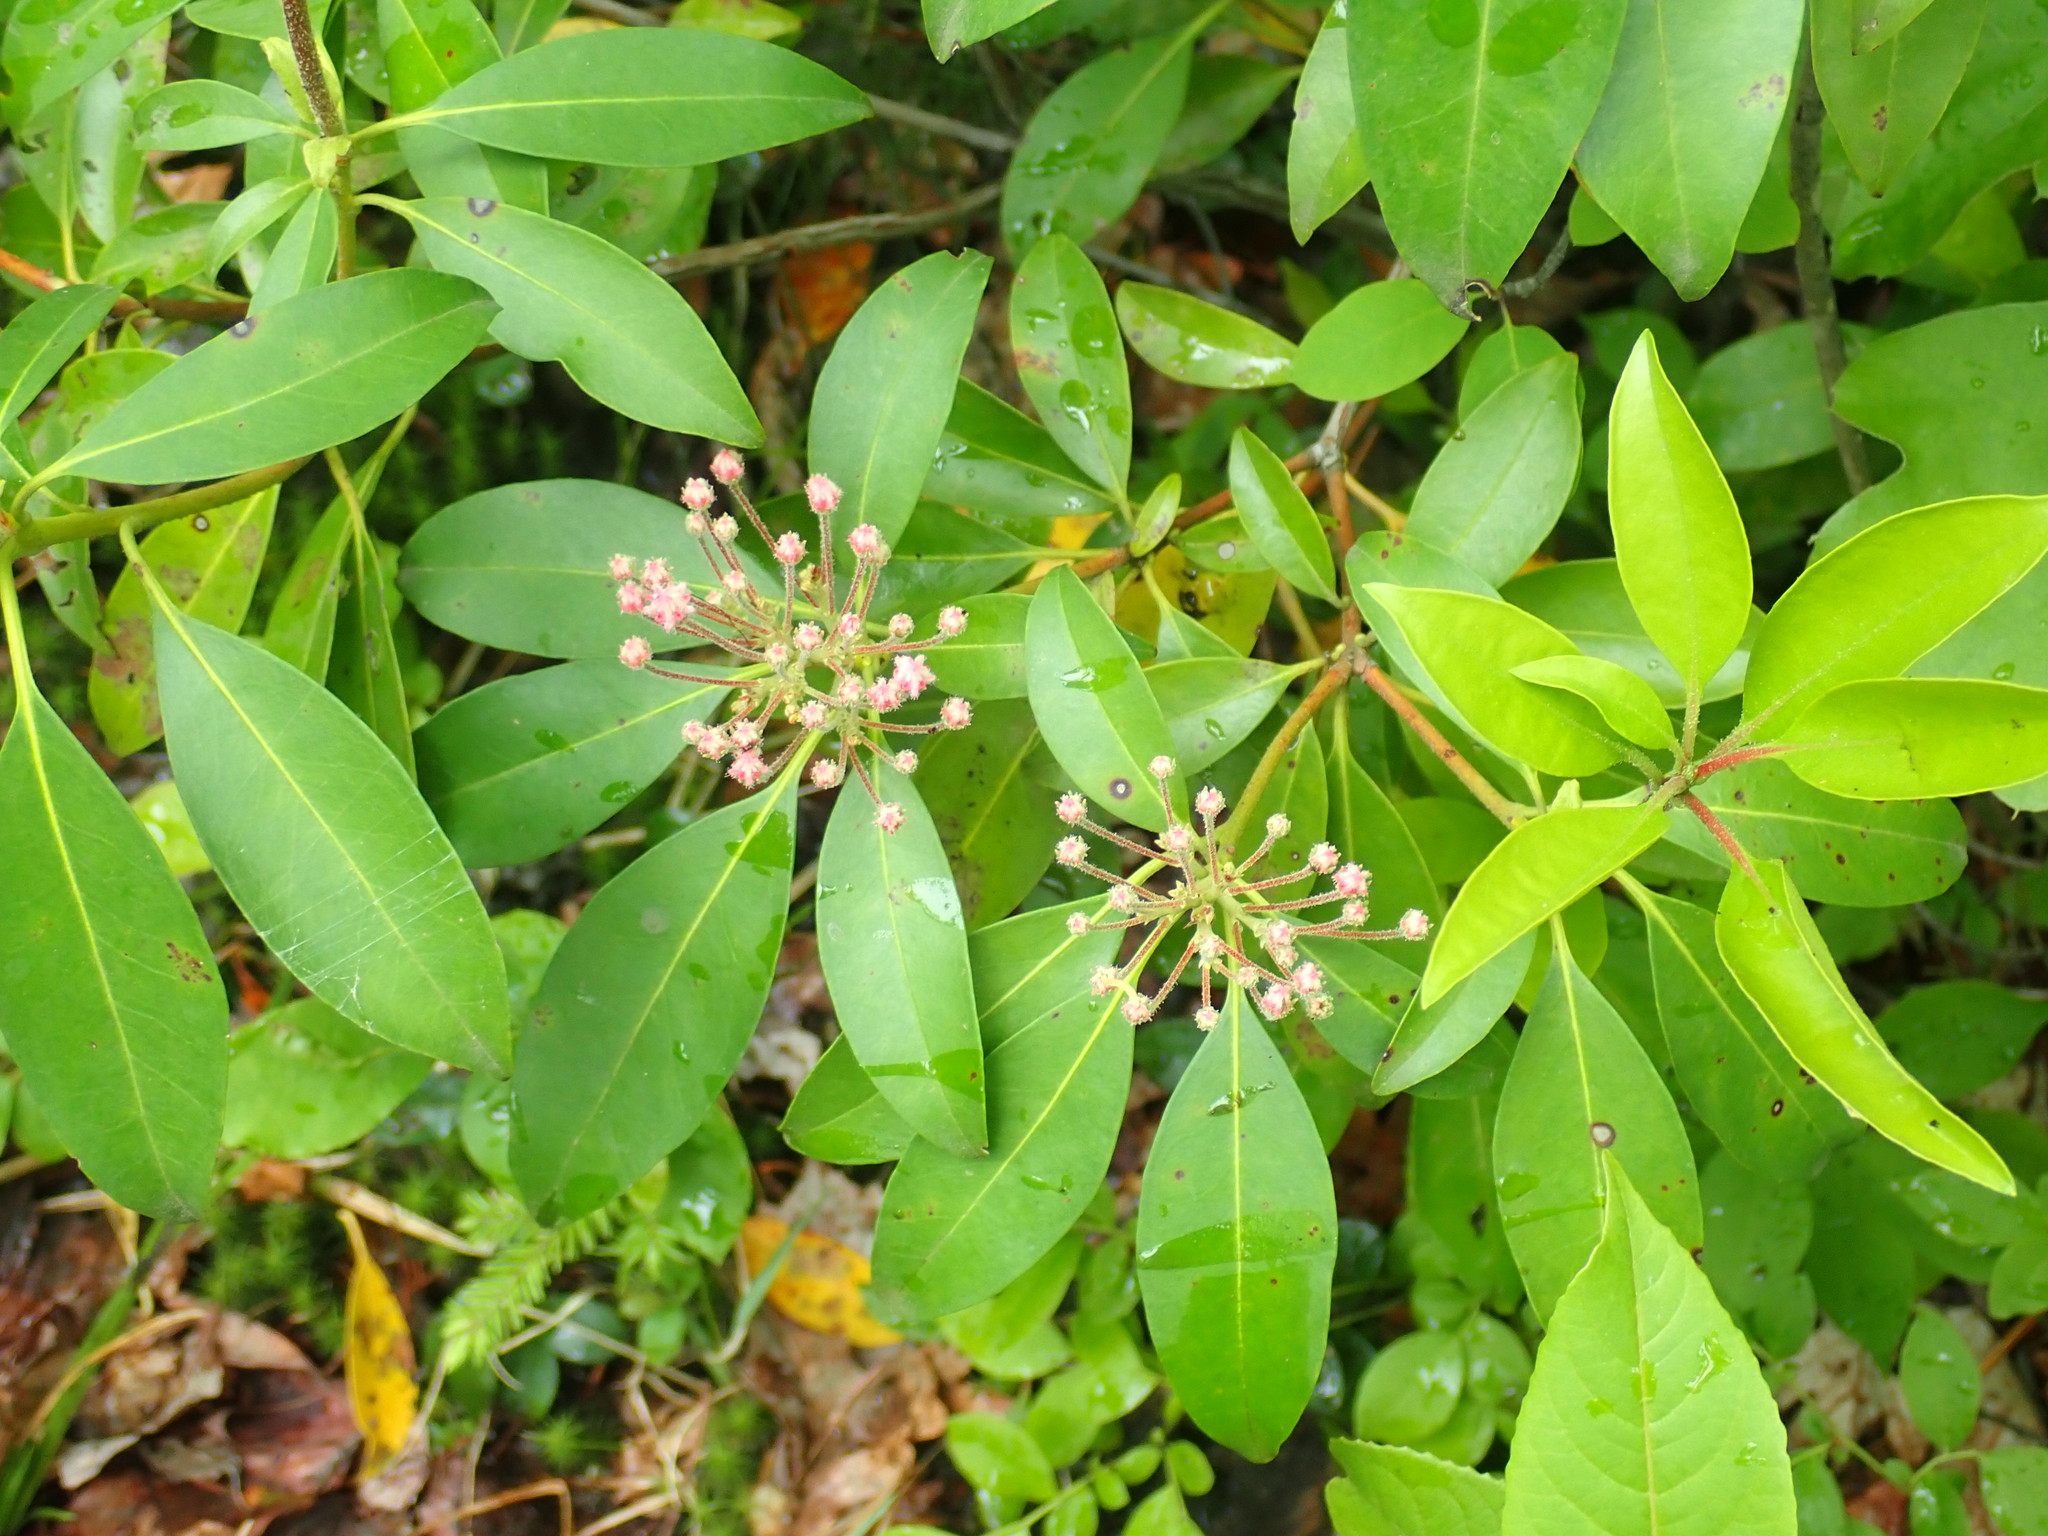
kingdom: Plantae
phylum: Tracheophyta
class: Magnoliopsida
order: Ericales
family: Ericaceae
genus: Kalmia
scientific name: Kalmia latifolia
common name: Mountain-laurel
